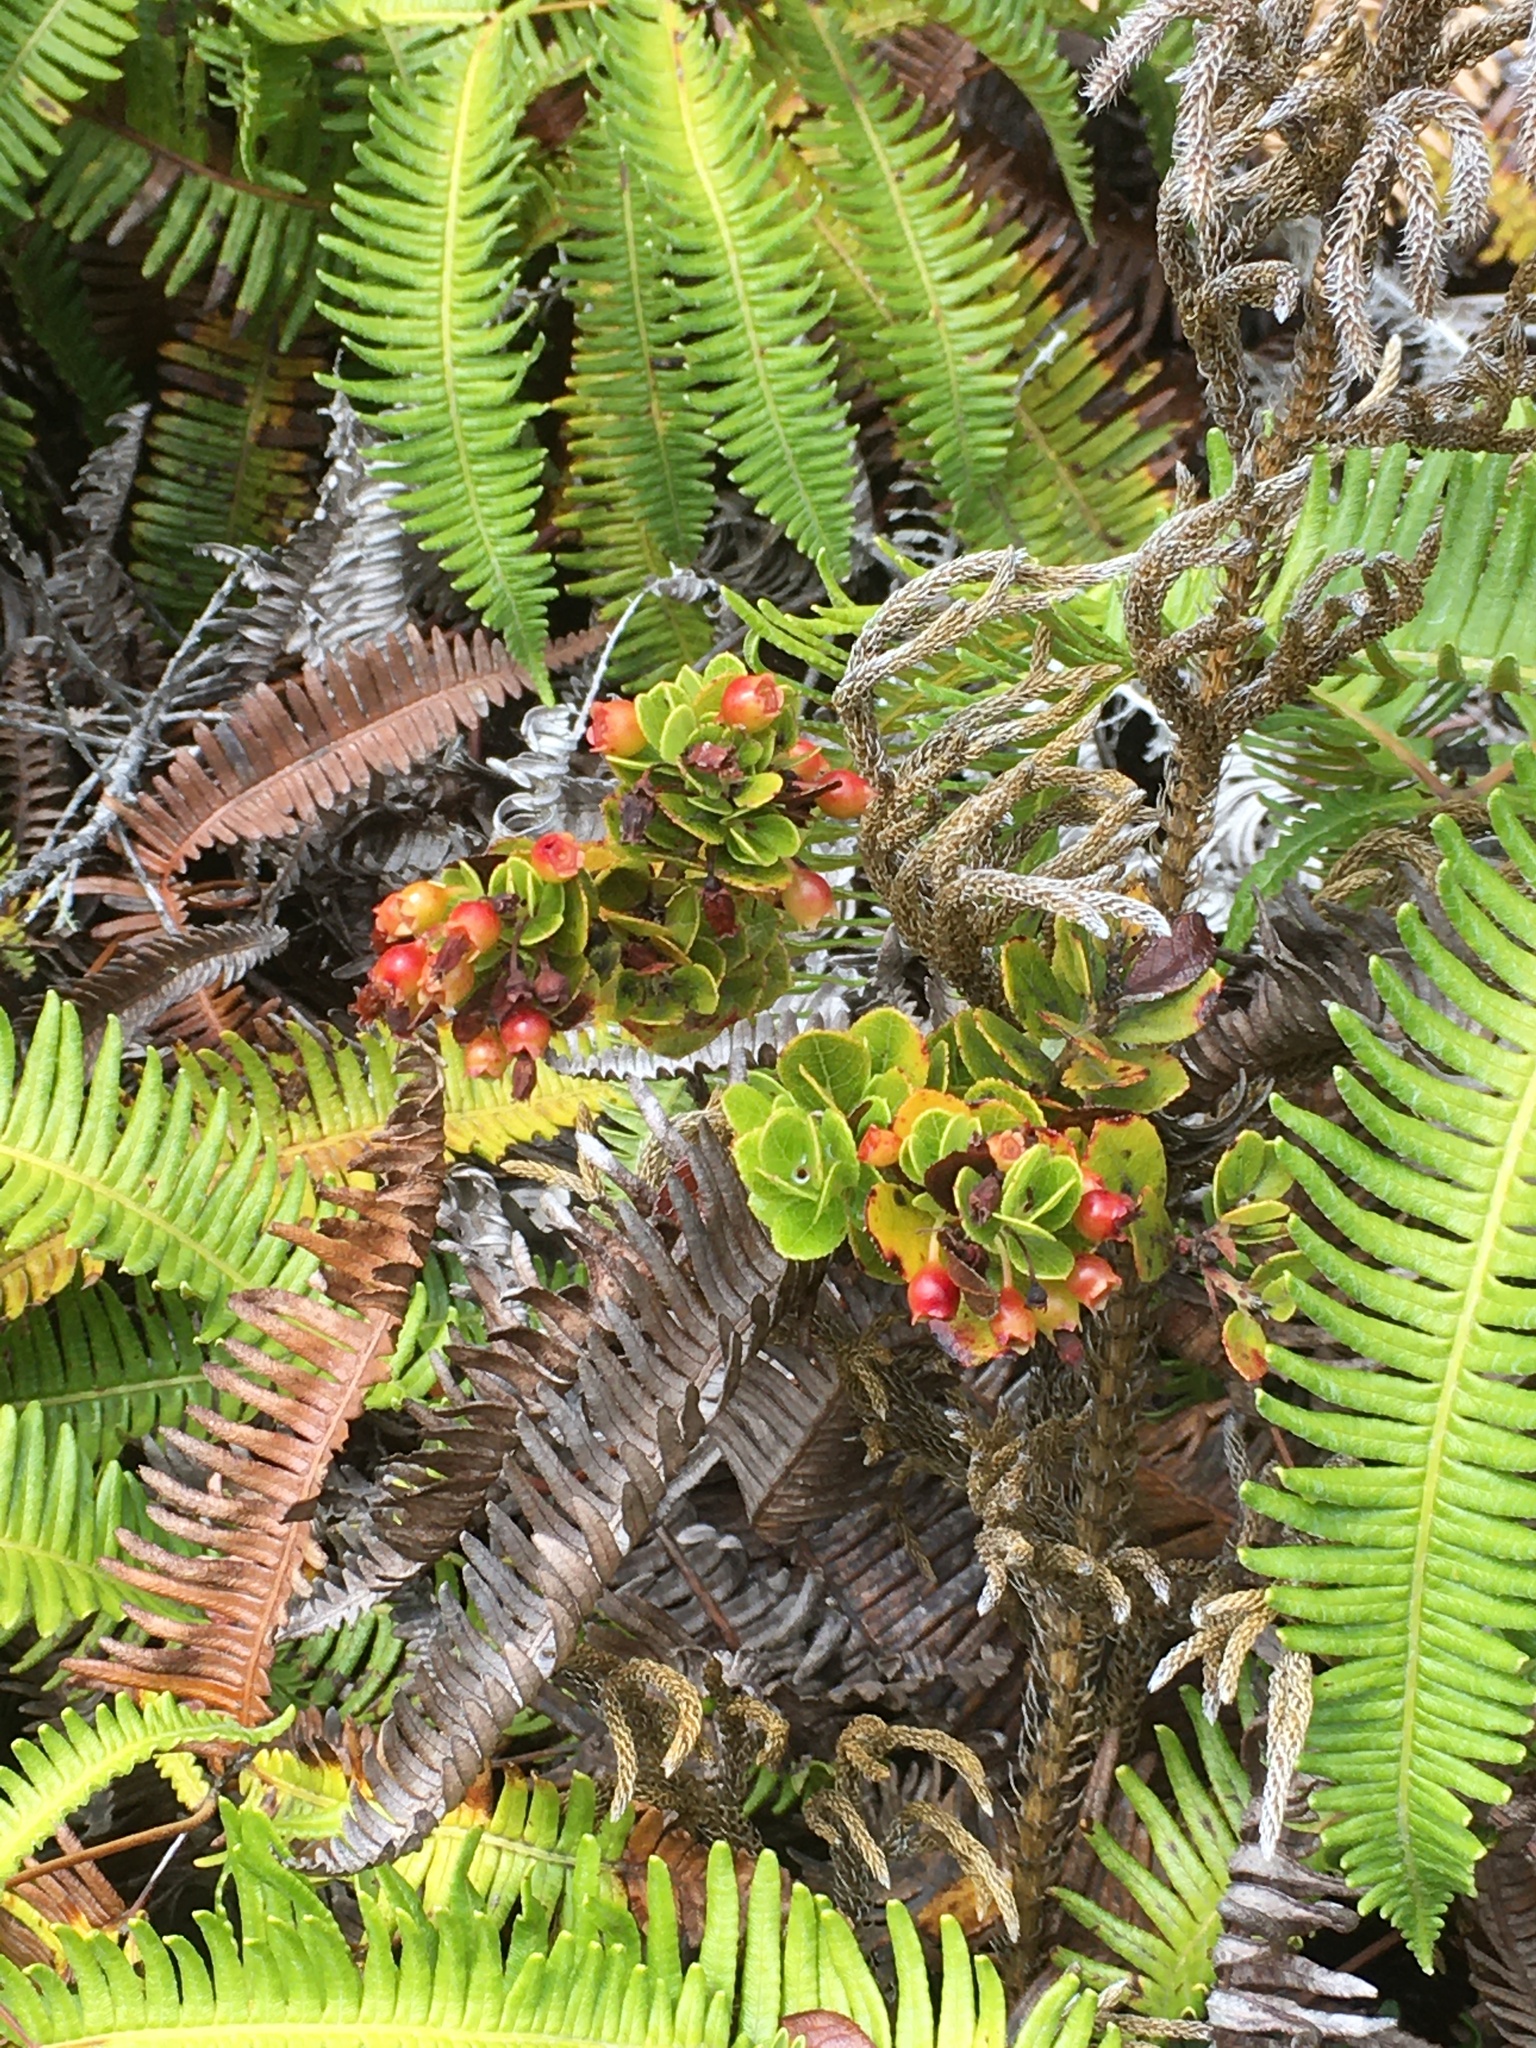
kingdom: Plantae
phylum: Tracheophyta
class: Magnoliopsida
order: Ericales
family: Ericaceae
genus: Vaccinium
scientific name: Vaccinium reticulatum
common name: Ohelo
